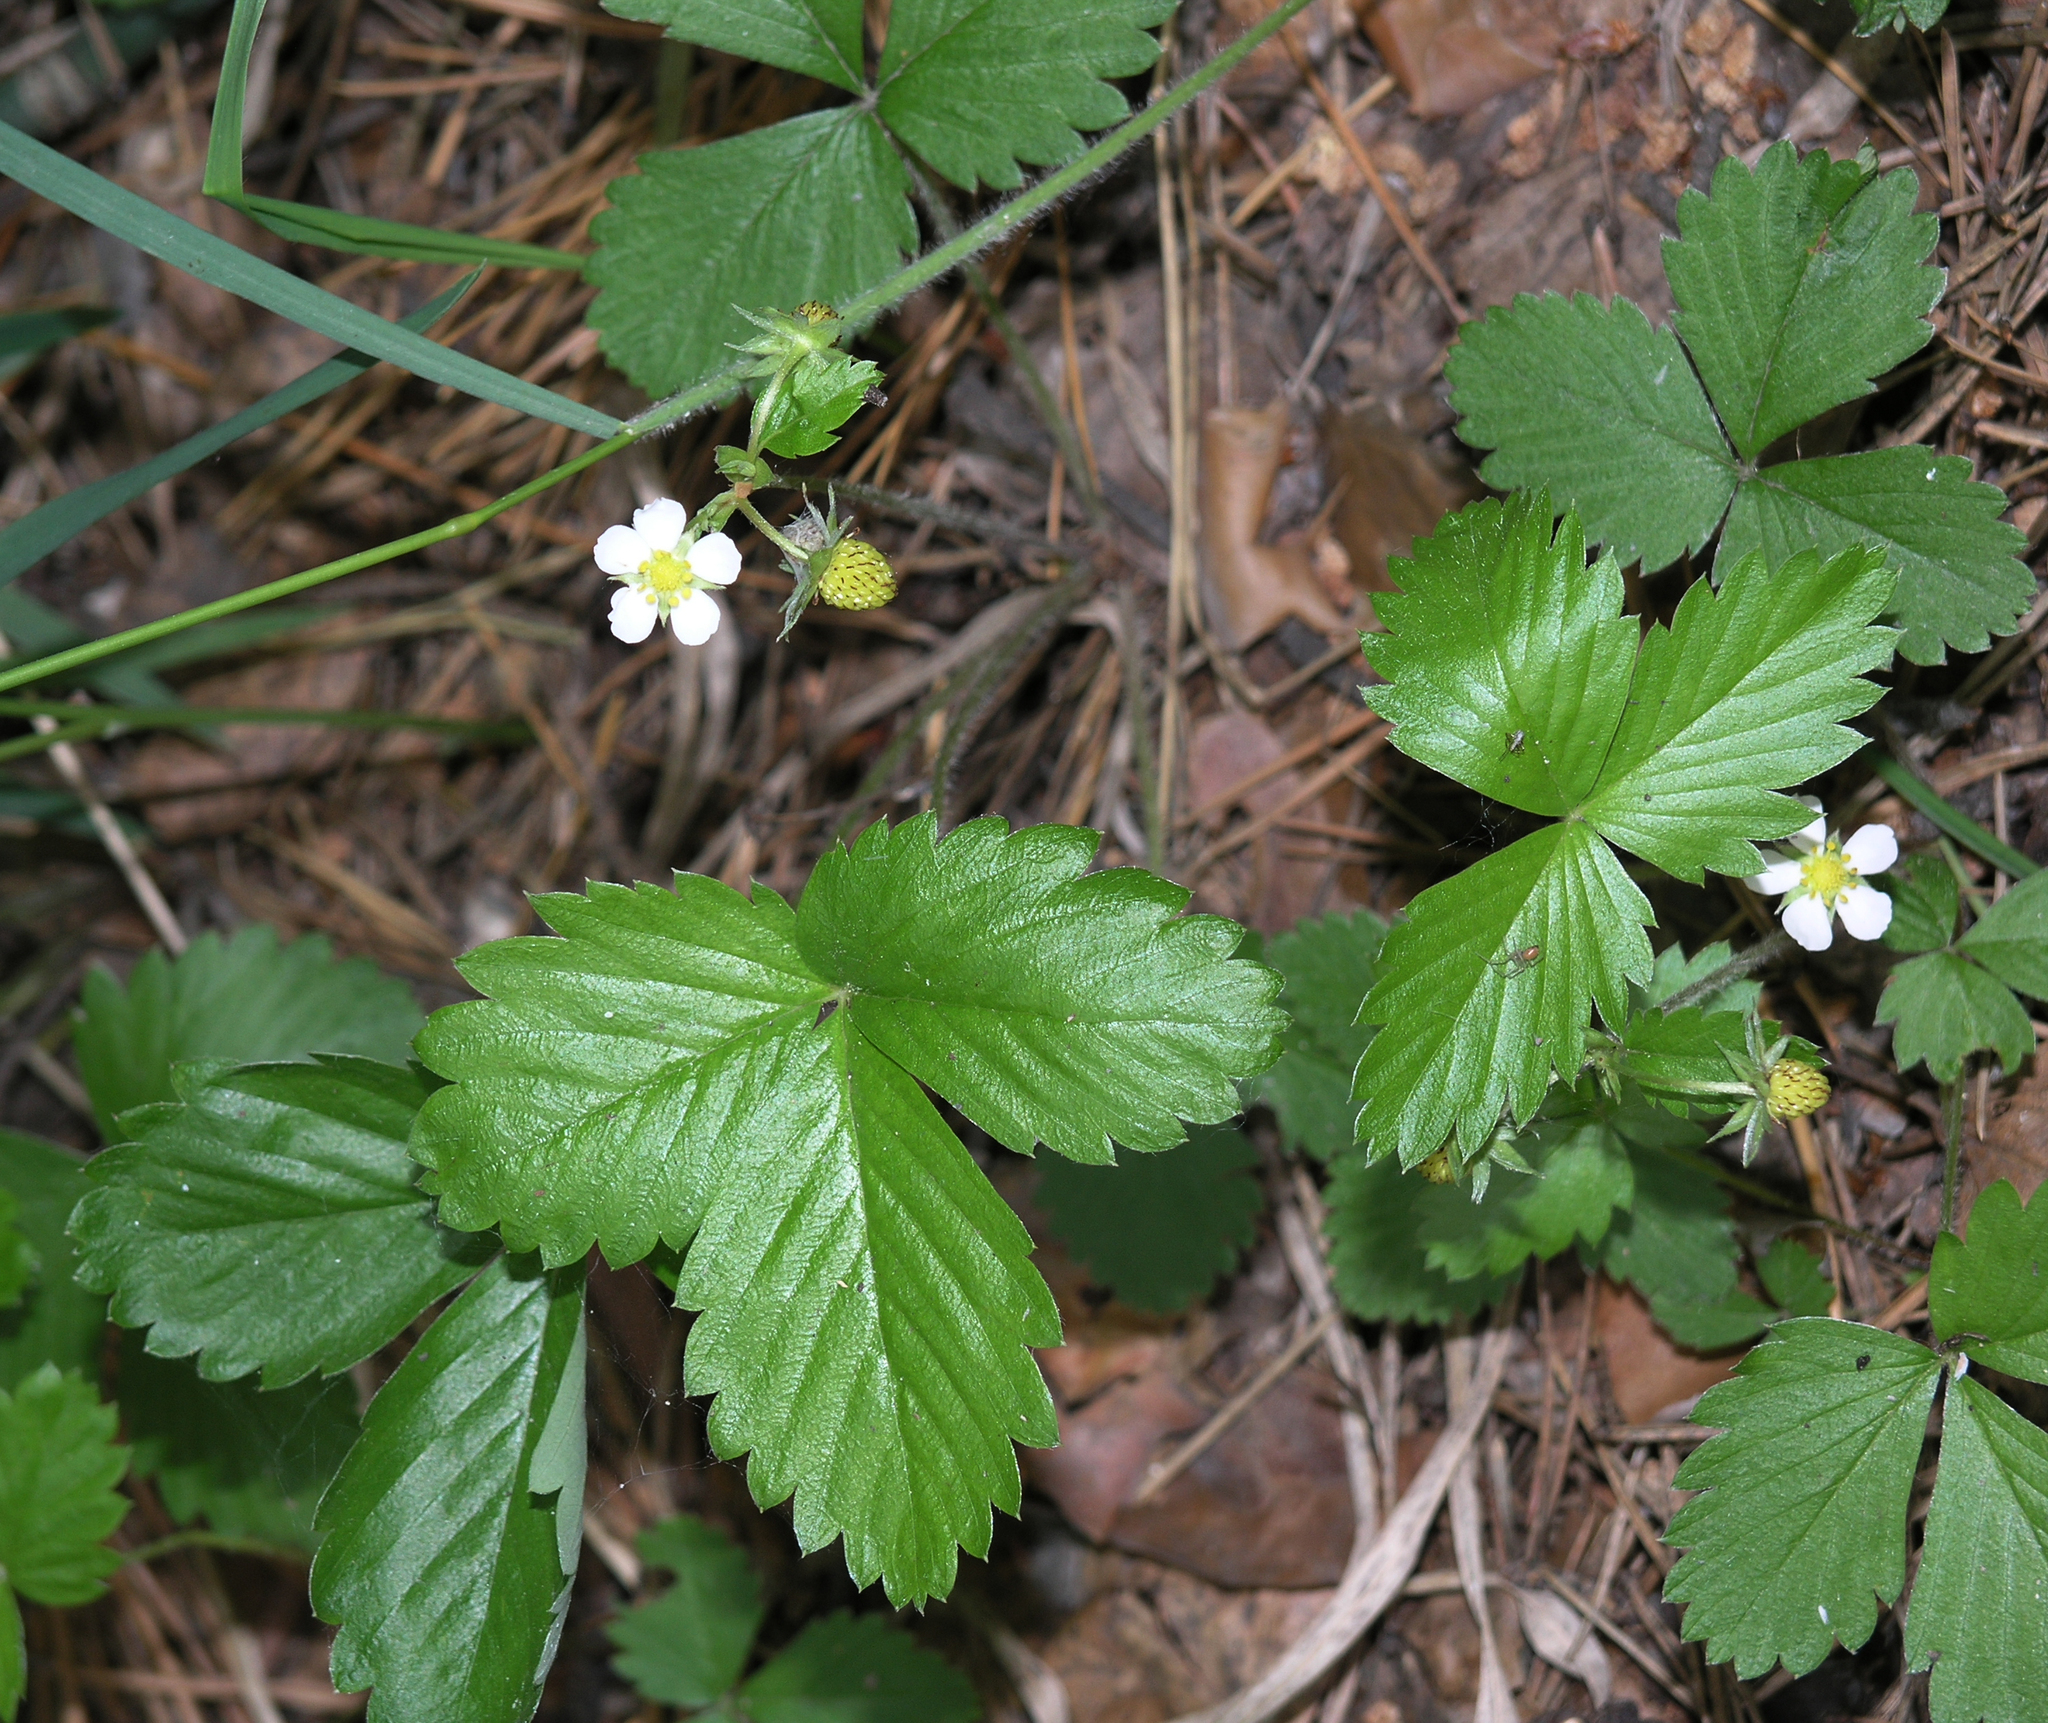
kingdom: Plantae
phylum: Tracheophyta
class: Magnoliopsida
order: Rosales
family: Rosaceae
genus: Fragaria
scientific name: Fragaria vesca
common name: Wild strawberry
